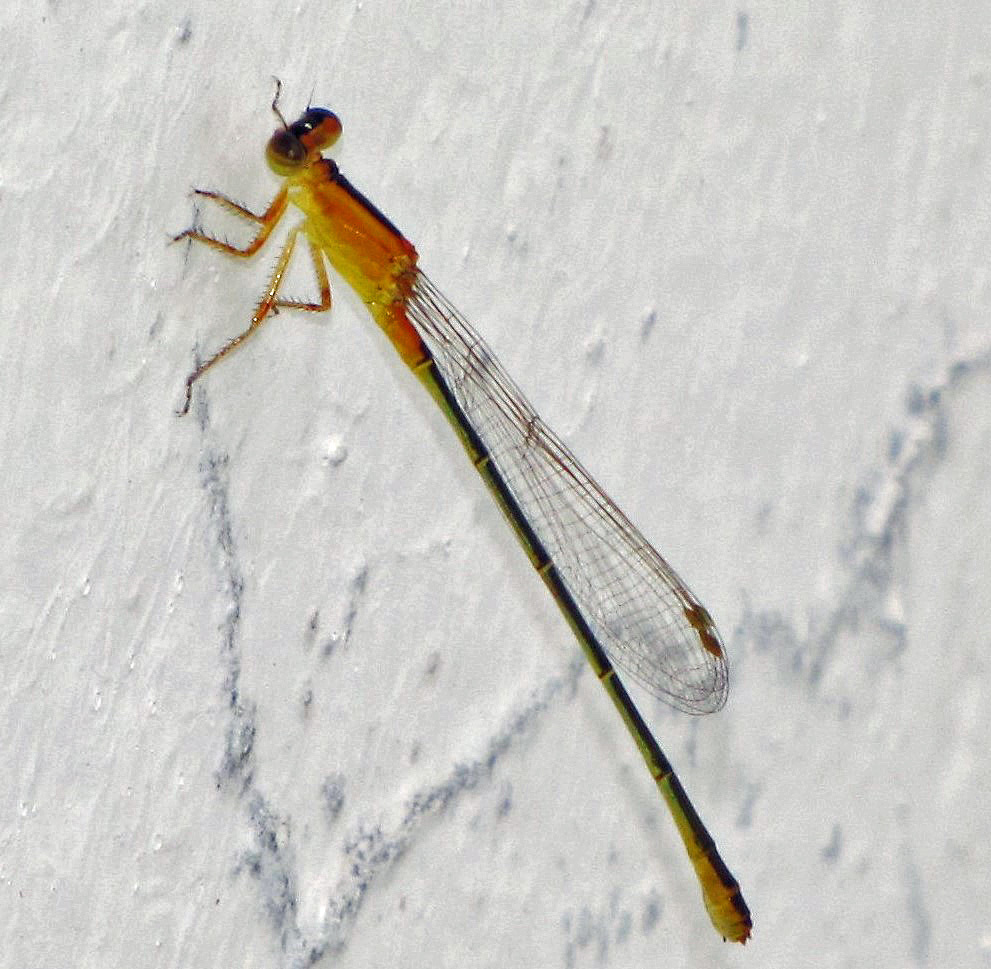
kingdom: Animalia
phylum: Arthropoda
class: Insecta
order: Odonata
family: Coenagrionidae
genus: Ischnura
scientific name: Ischnura fluviatilis
